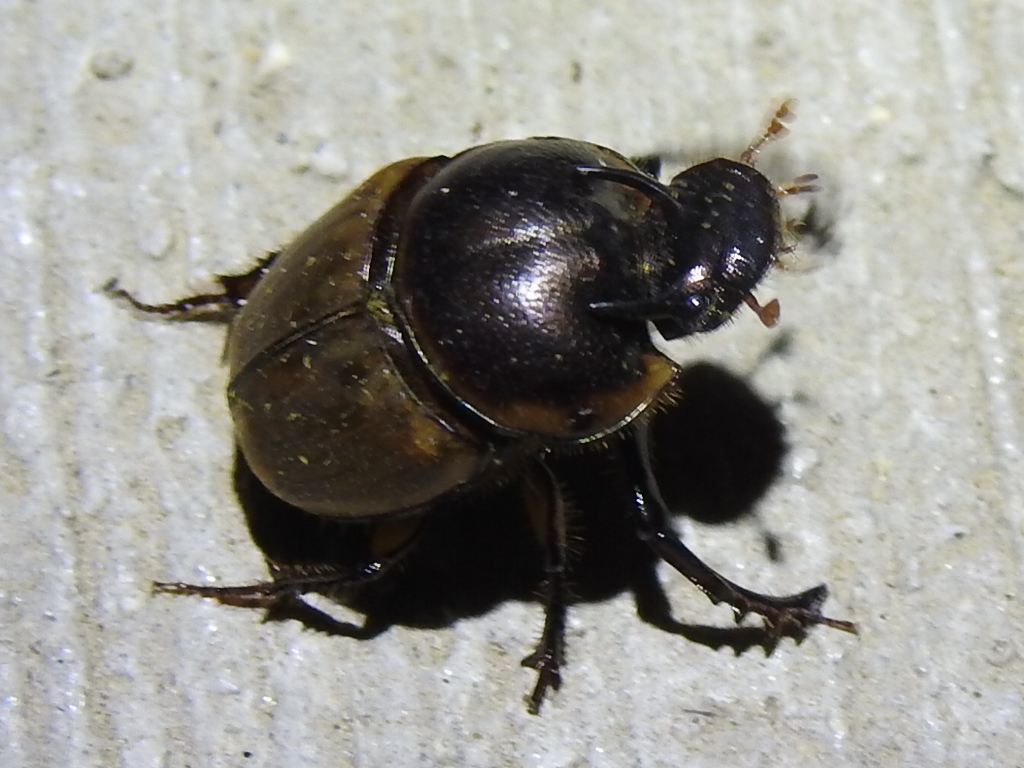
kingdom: Animalia
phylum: Arthropoda
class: Insecta
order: Coleoptera
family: Scarabaeidae
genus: Digitonthophagus
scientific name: Digitonthophagus gazella
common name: Brown dung beetle
